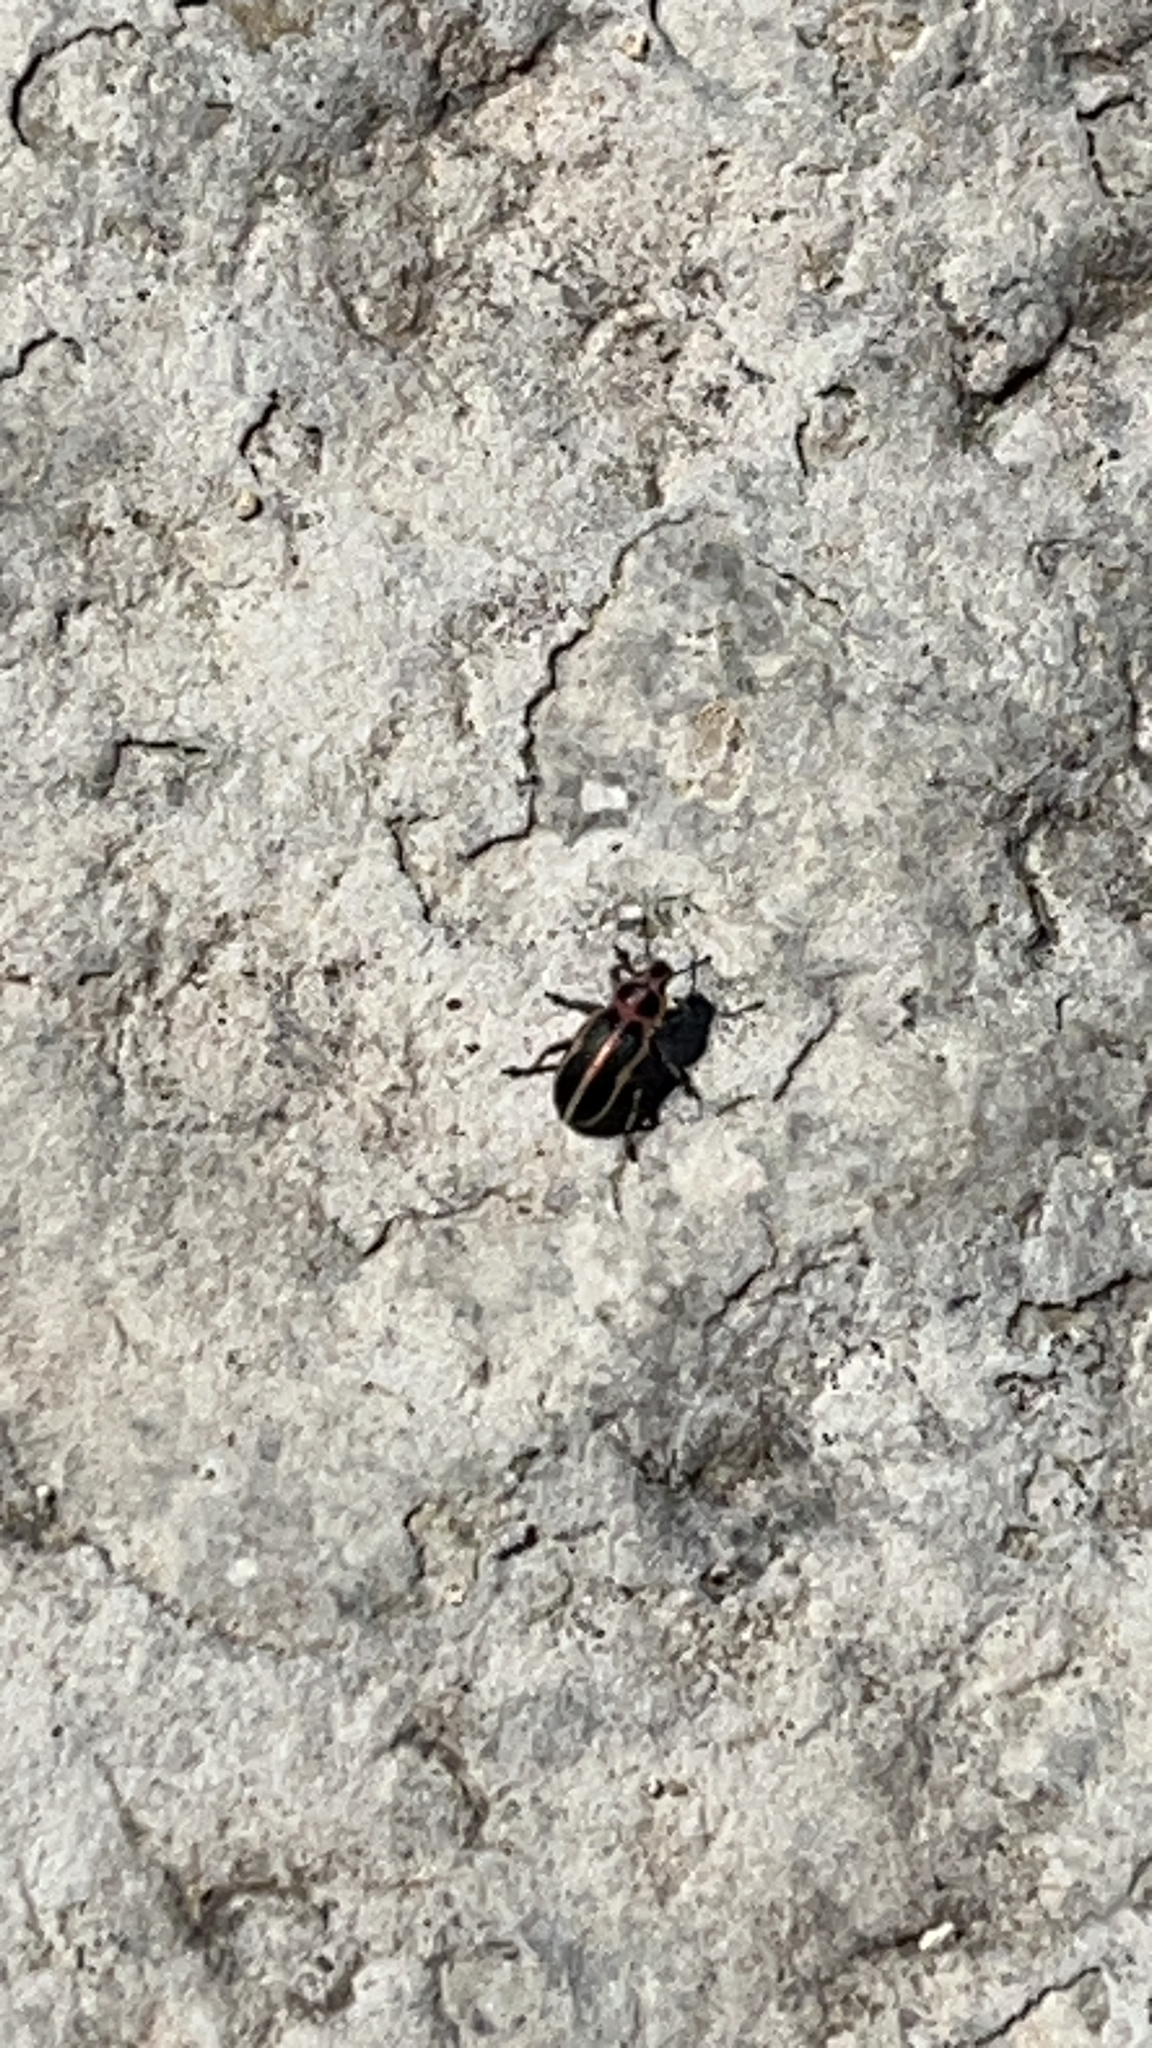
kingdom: Animalia
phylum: Arthropoda
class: Insecta
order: Coleoptera
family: Curculionidae
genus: Eudiagogus
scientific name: Eudiagogus pulcher
